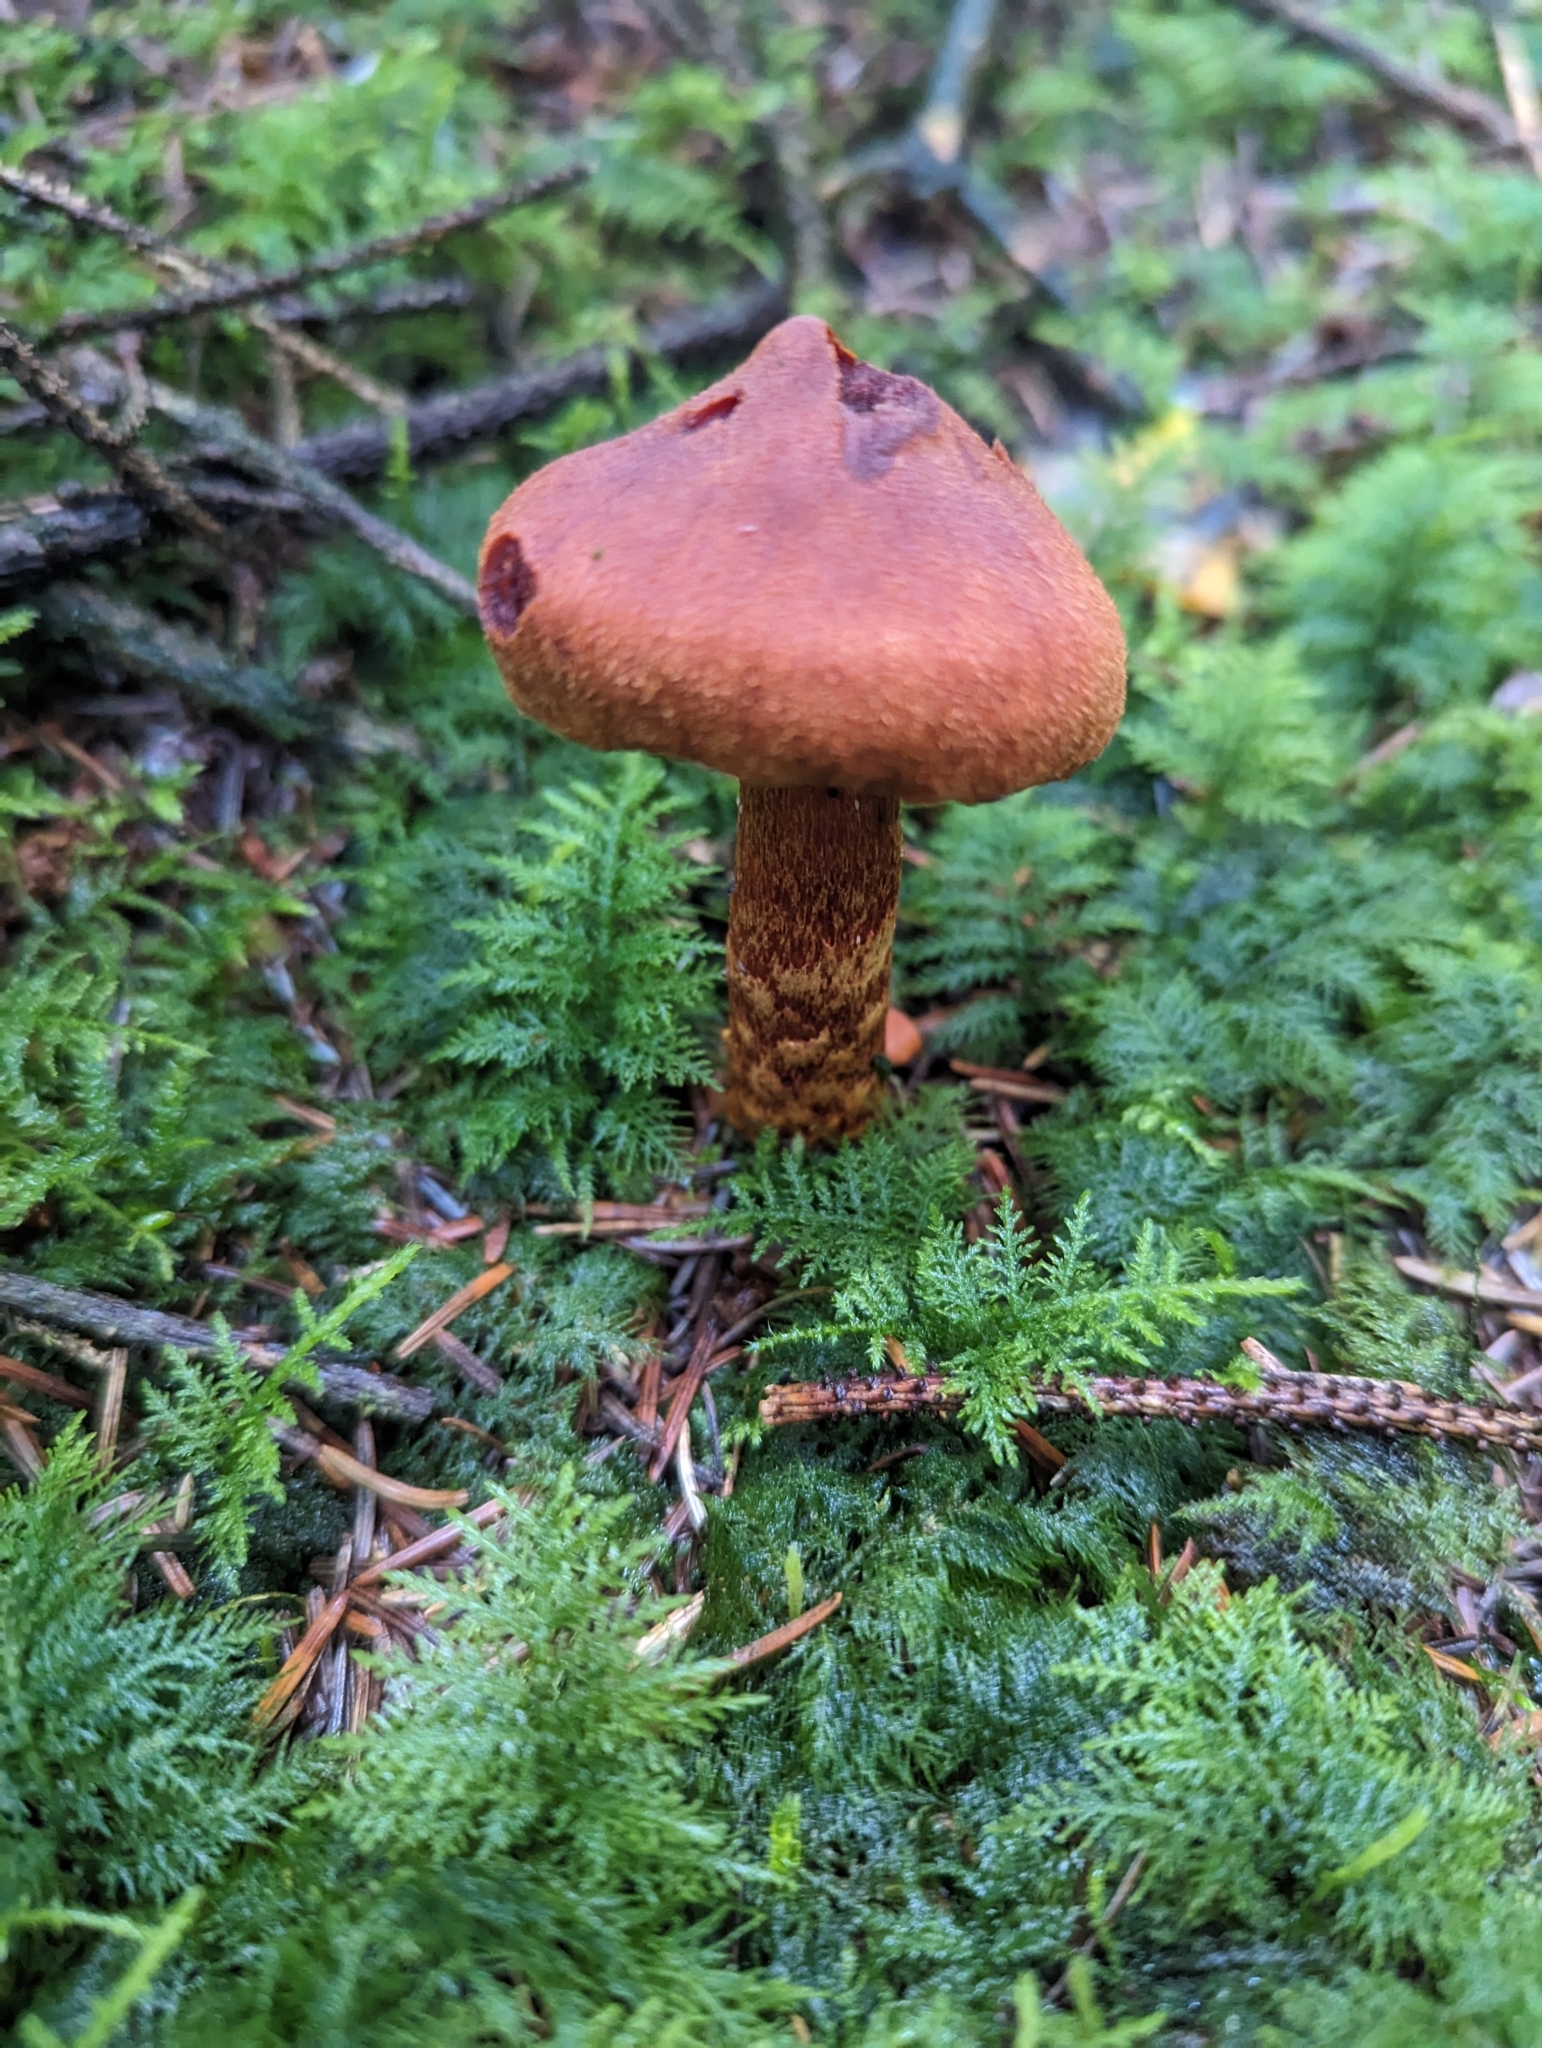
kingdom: Fungi
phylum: Basidiomycota
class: Agaricomycetes
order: Agaricales
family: Cortinariaceae
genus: Cortinarius
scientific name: Cortinarius rubellus
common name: Deadly webcap
